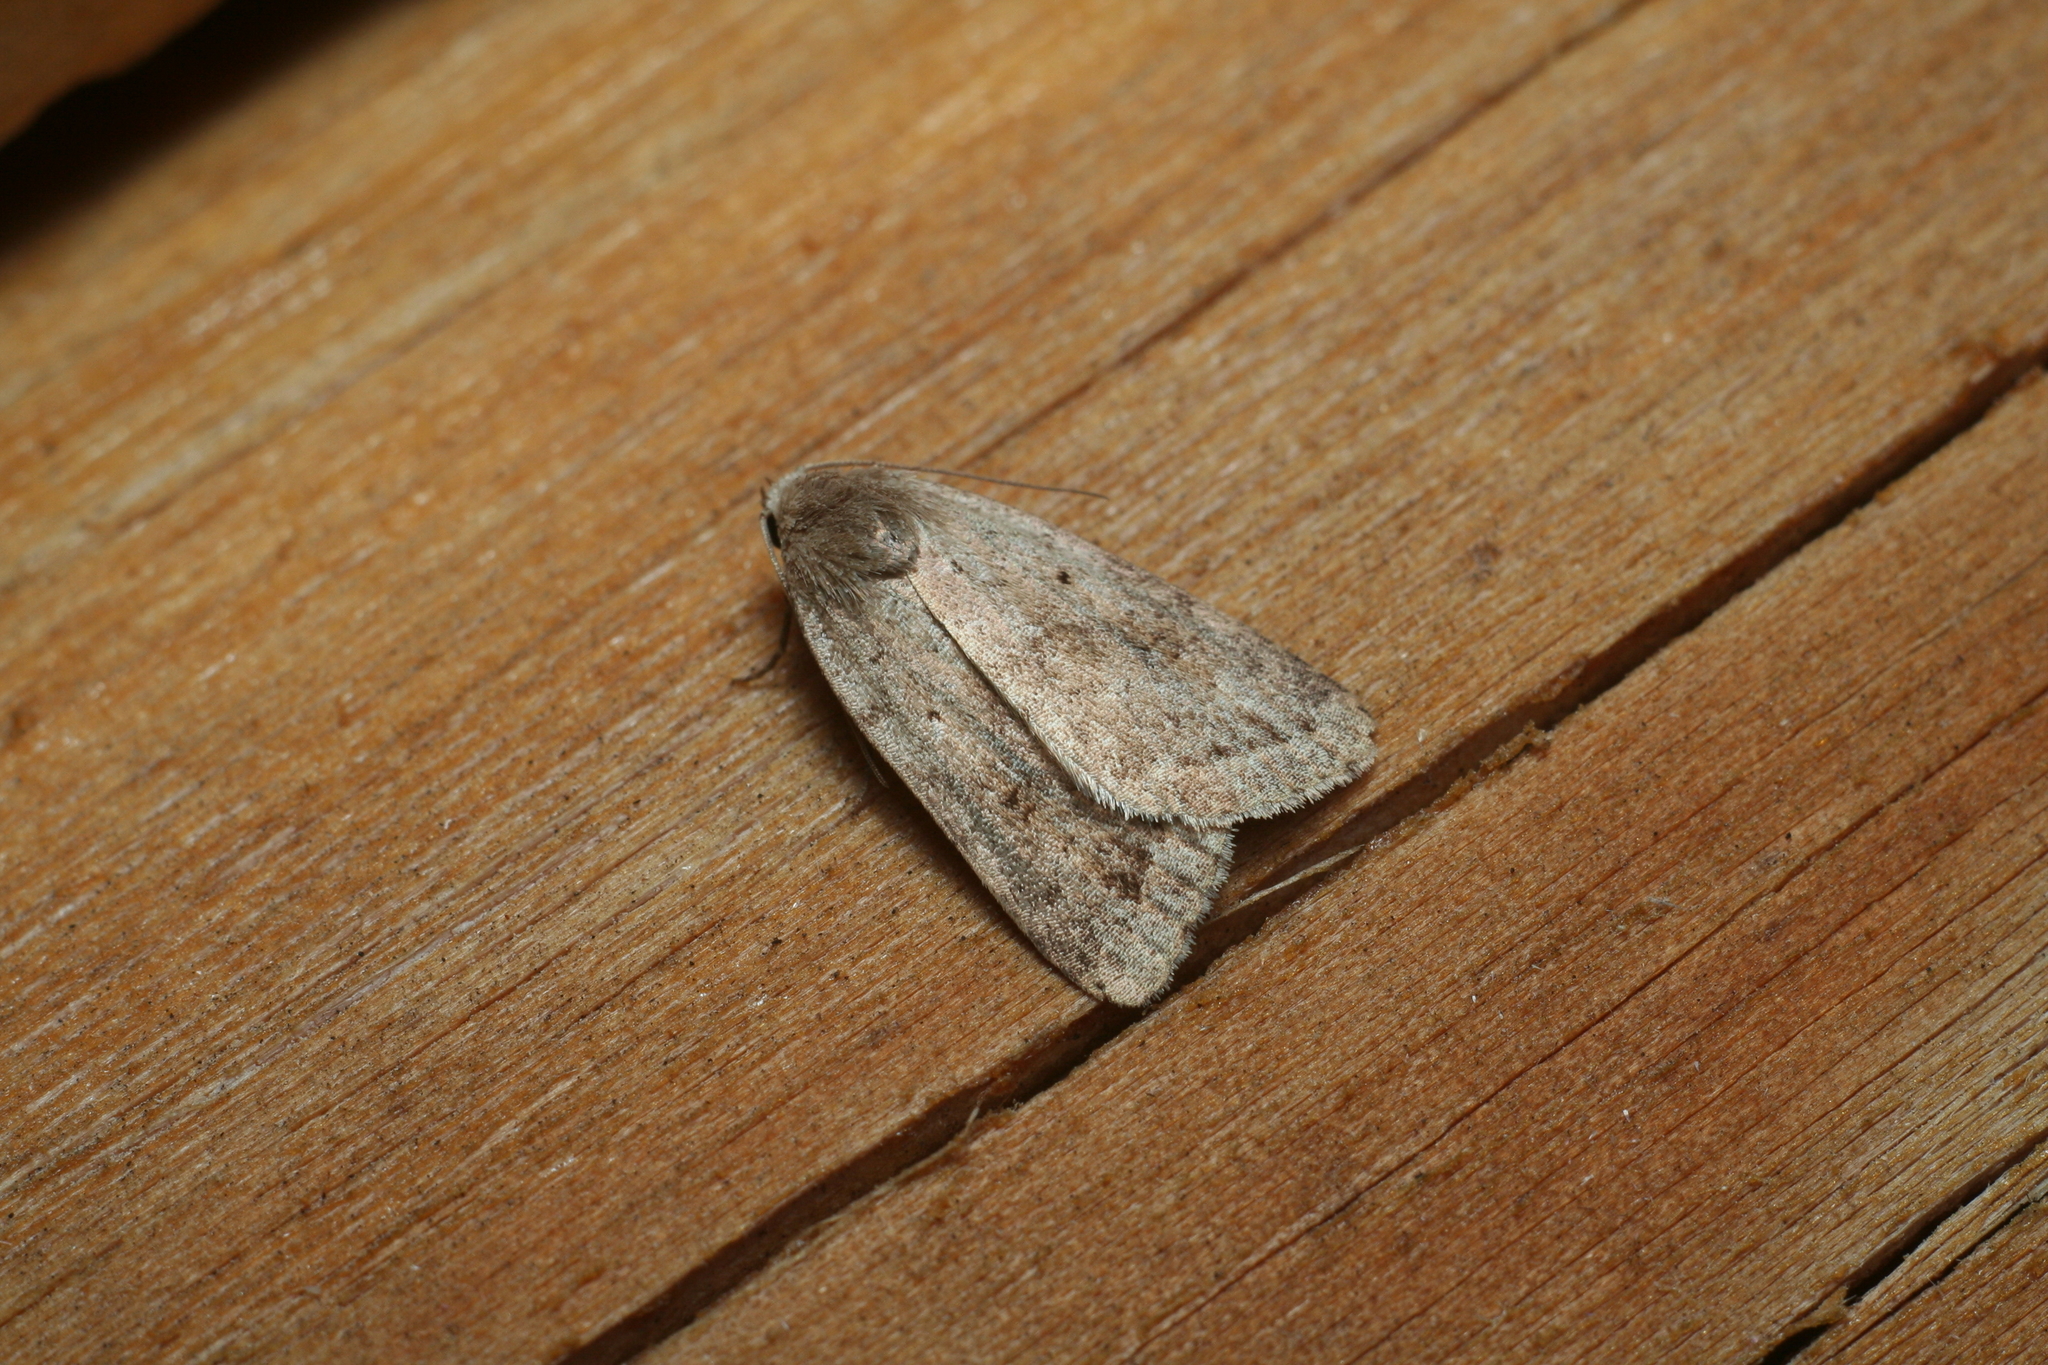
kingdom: Animalia
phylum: Arthropoda
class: Insecta
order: Lepidoptera
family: Noctuidae
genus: Athetis
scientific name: Athetis gluteosa
